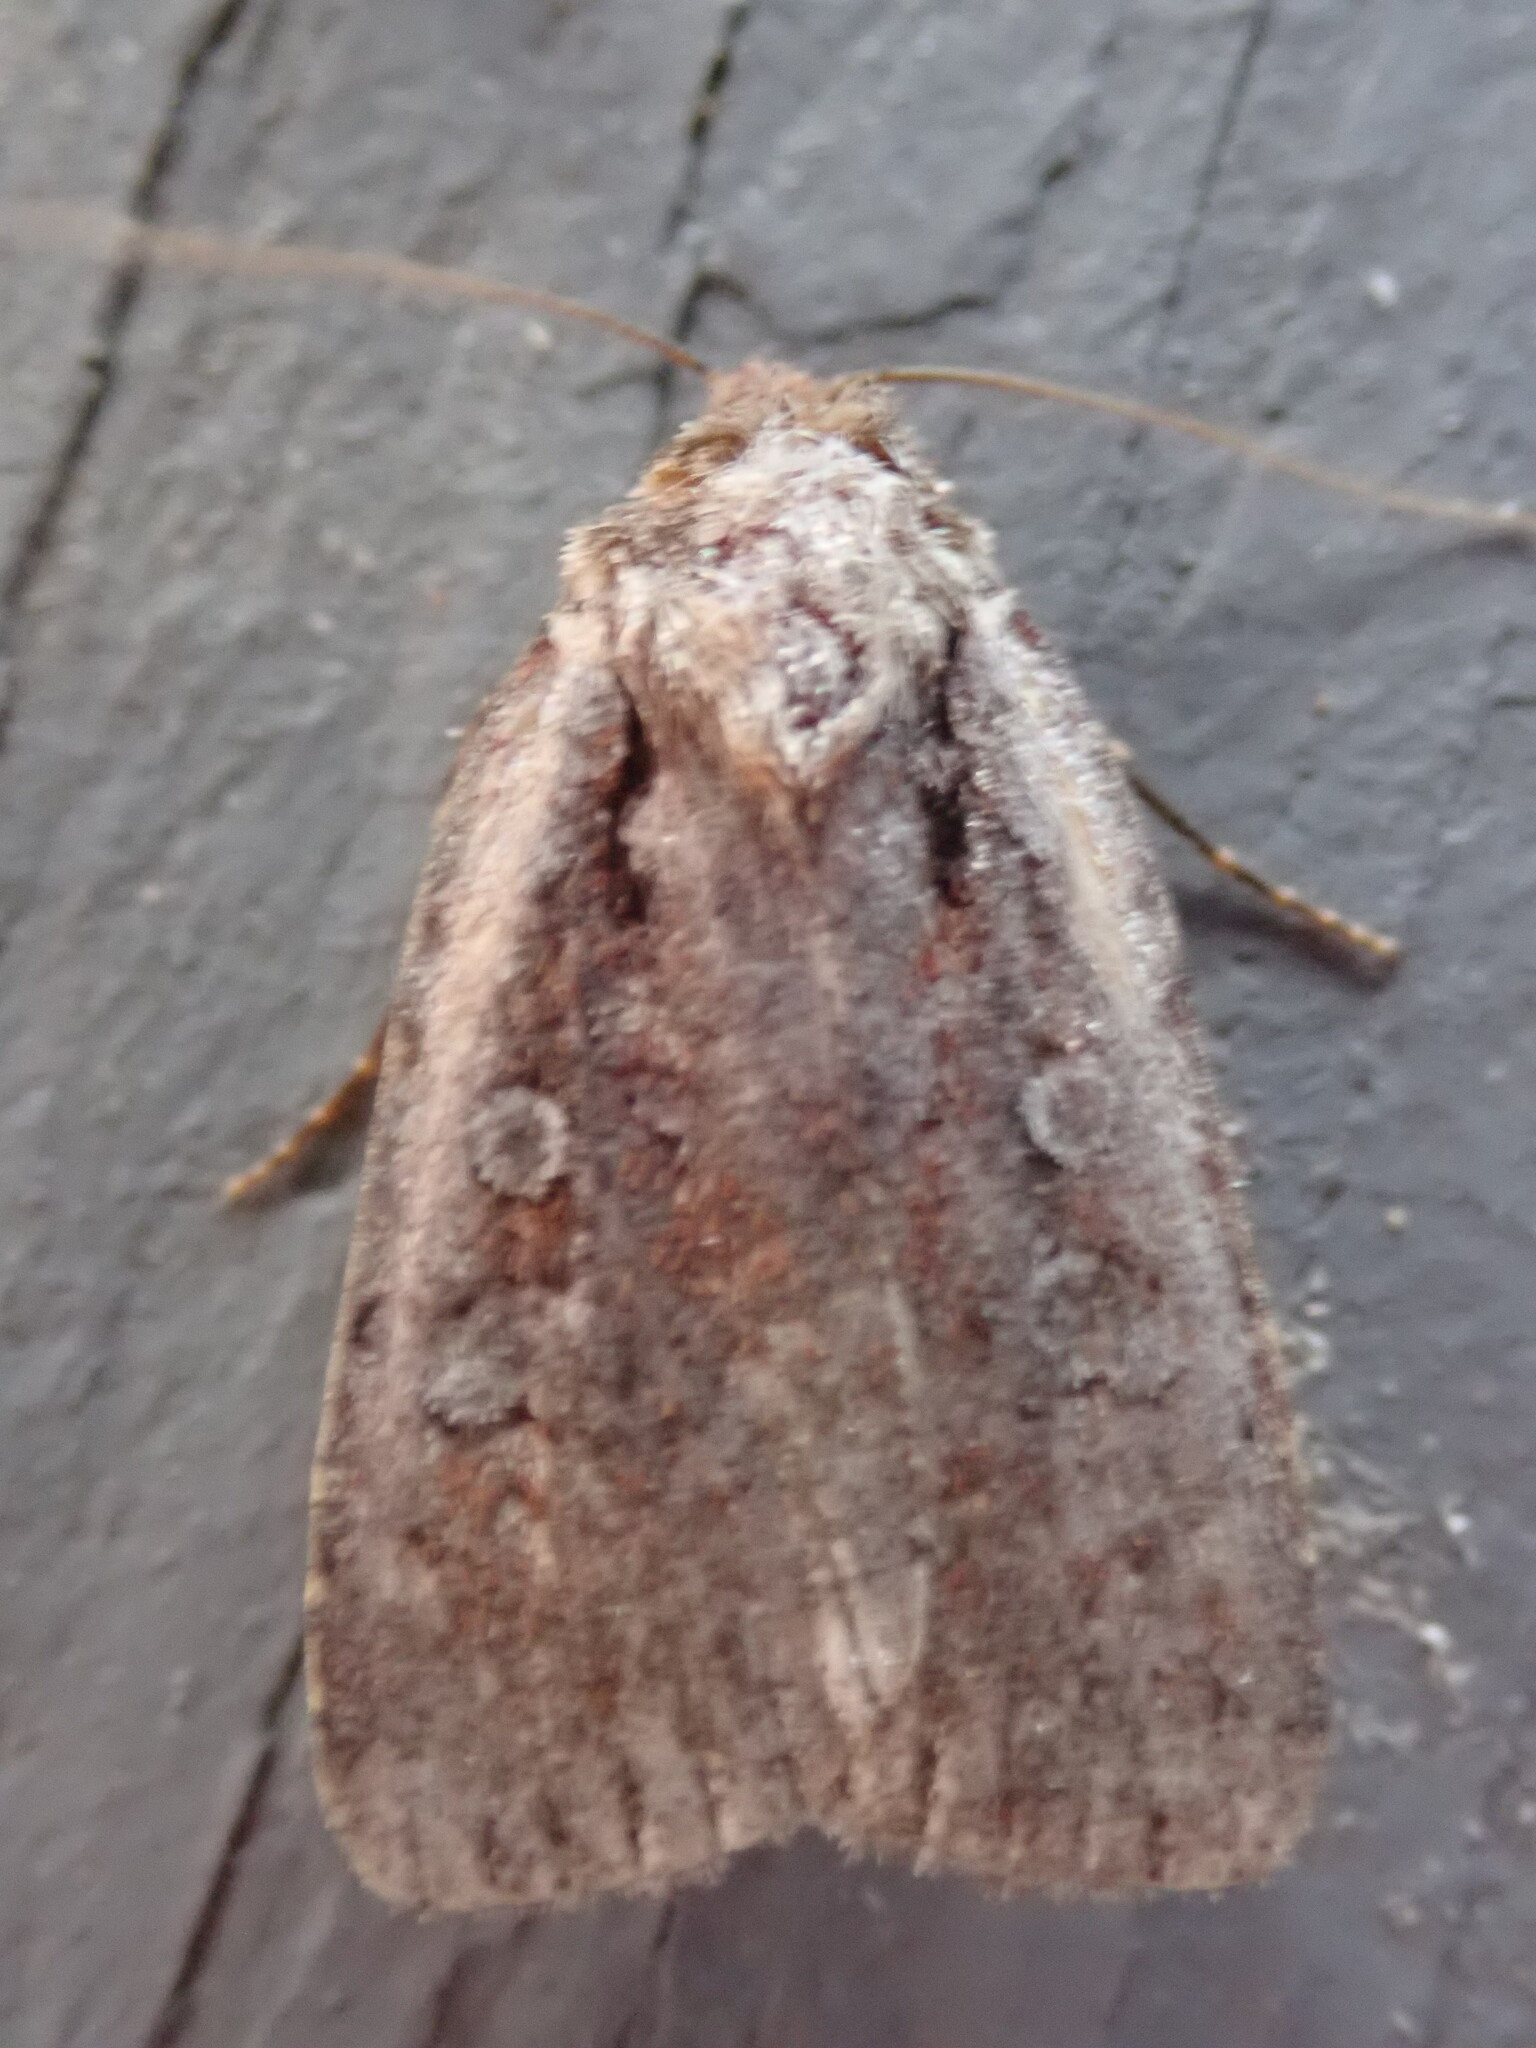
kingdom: Animalia
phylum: Arthropoda
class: Insecta
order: Lepidoptera
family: Noctuidae
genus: Eueretagrotis
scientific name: Eueretagrotis attentus
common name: Attentive dart
